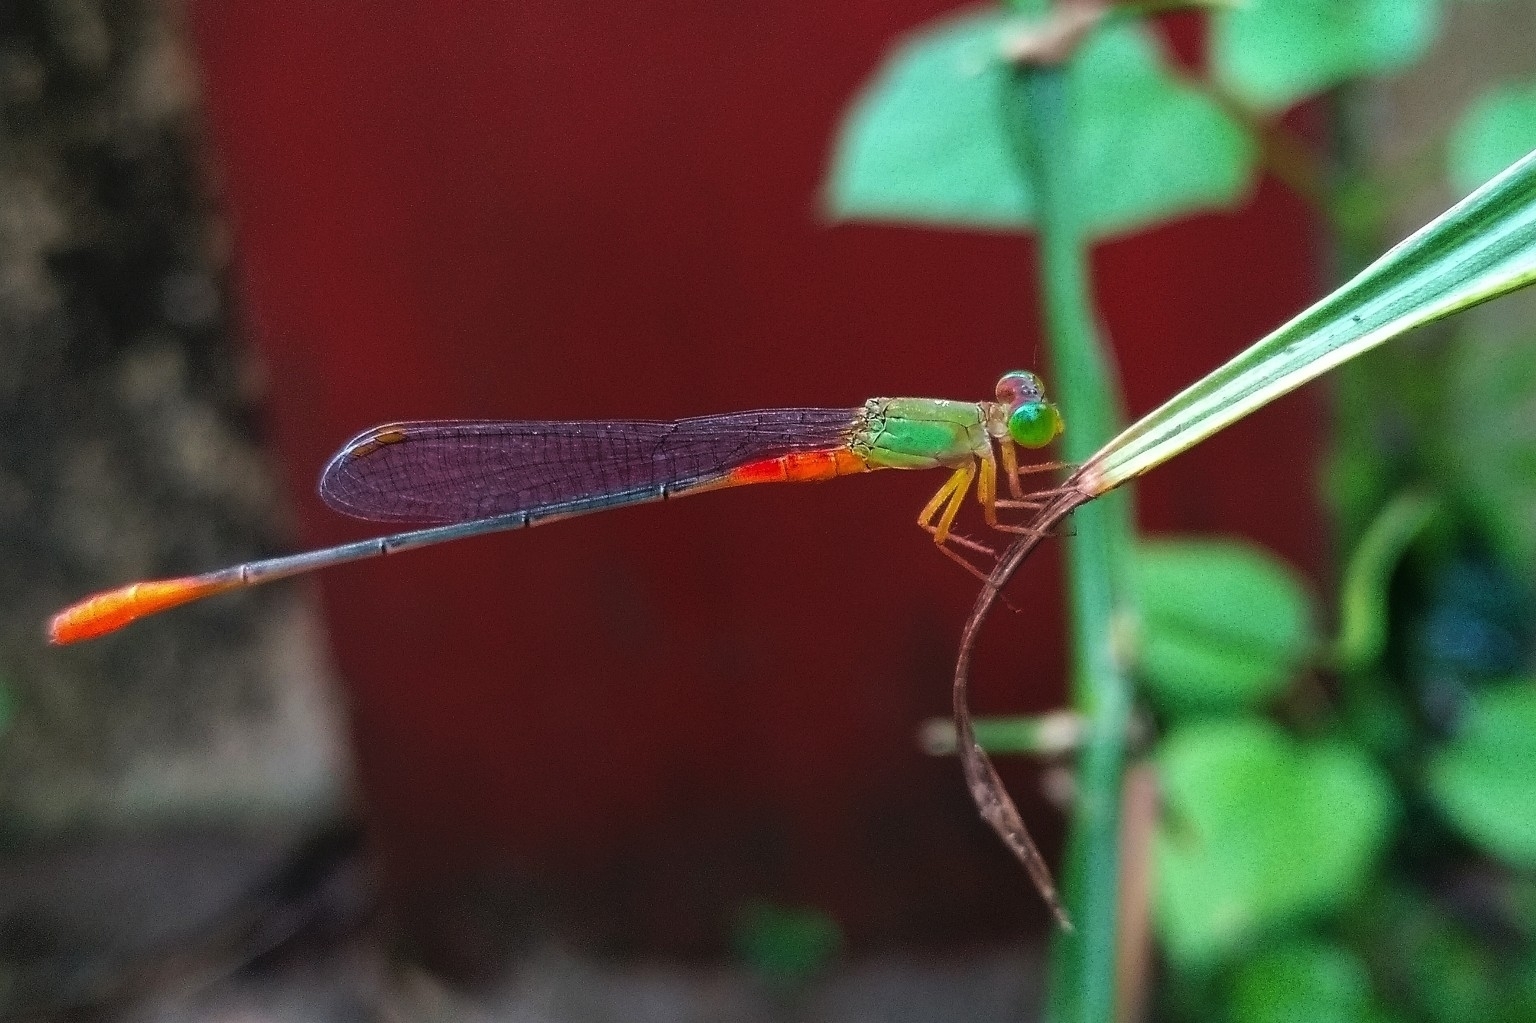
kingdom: Animalia
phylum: Arthropoda
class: Insecta
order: Odonata
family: Coenagrionidae
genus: Ceriagrion
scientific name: Ceriagrion cerinorubellum
